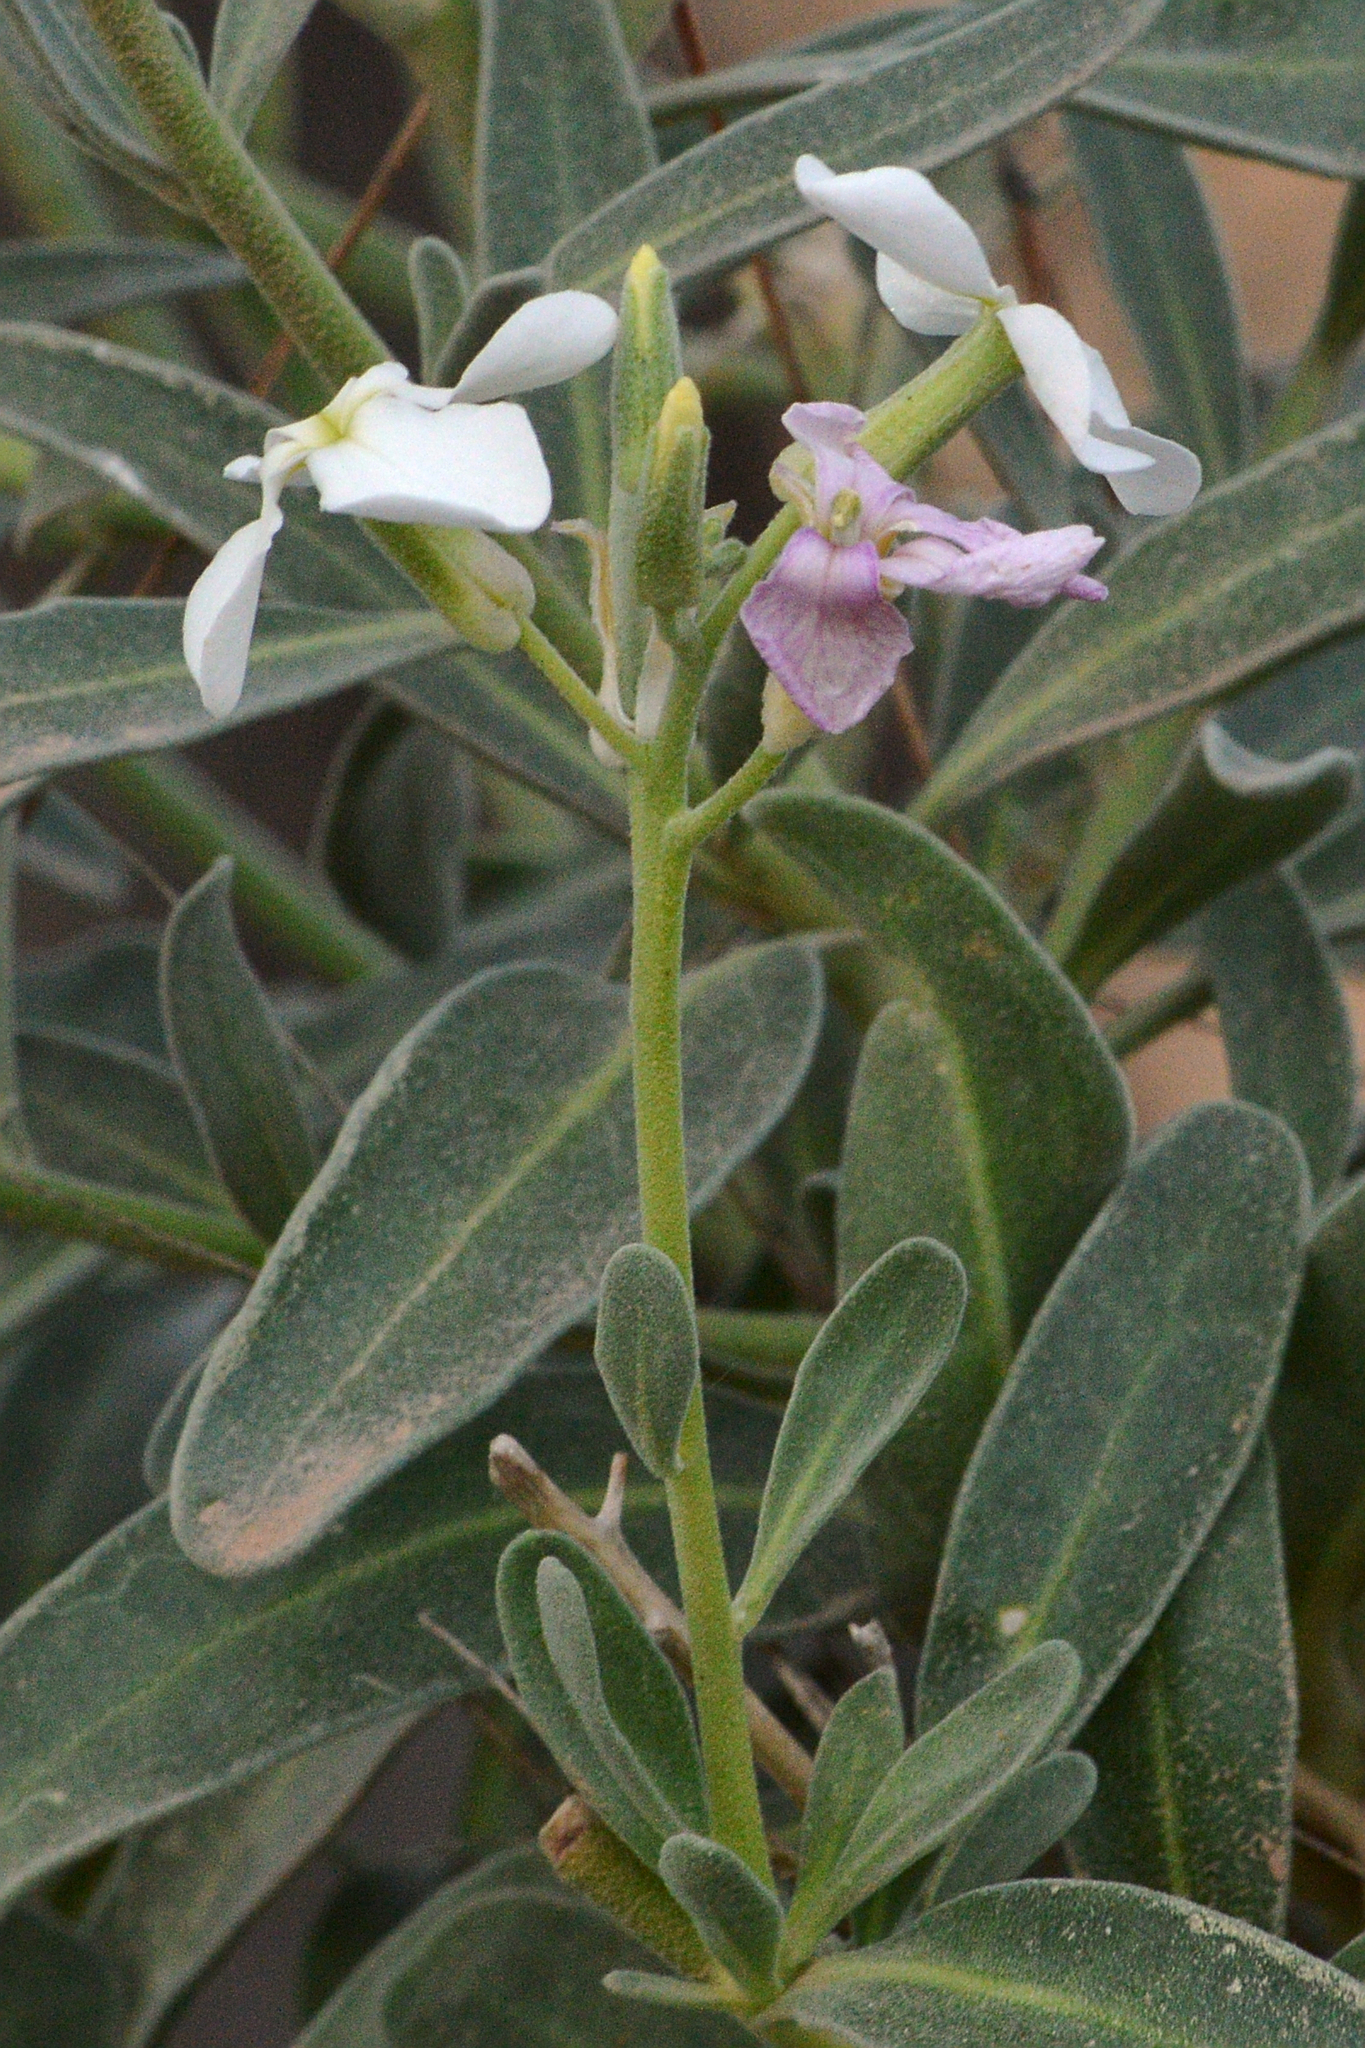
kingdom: Plantae
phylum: Tracheophyta
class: Magnoliopsida
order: Brassicales
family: Brassicaceae
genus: Matthiola
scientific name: Matthiola incana
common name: Hoary stock
